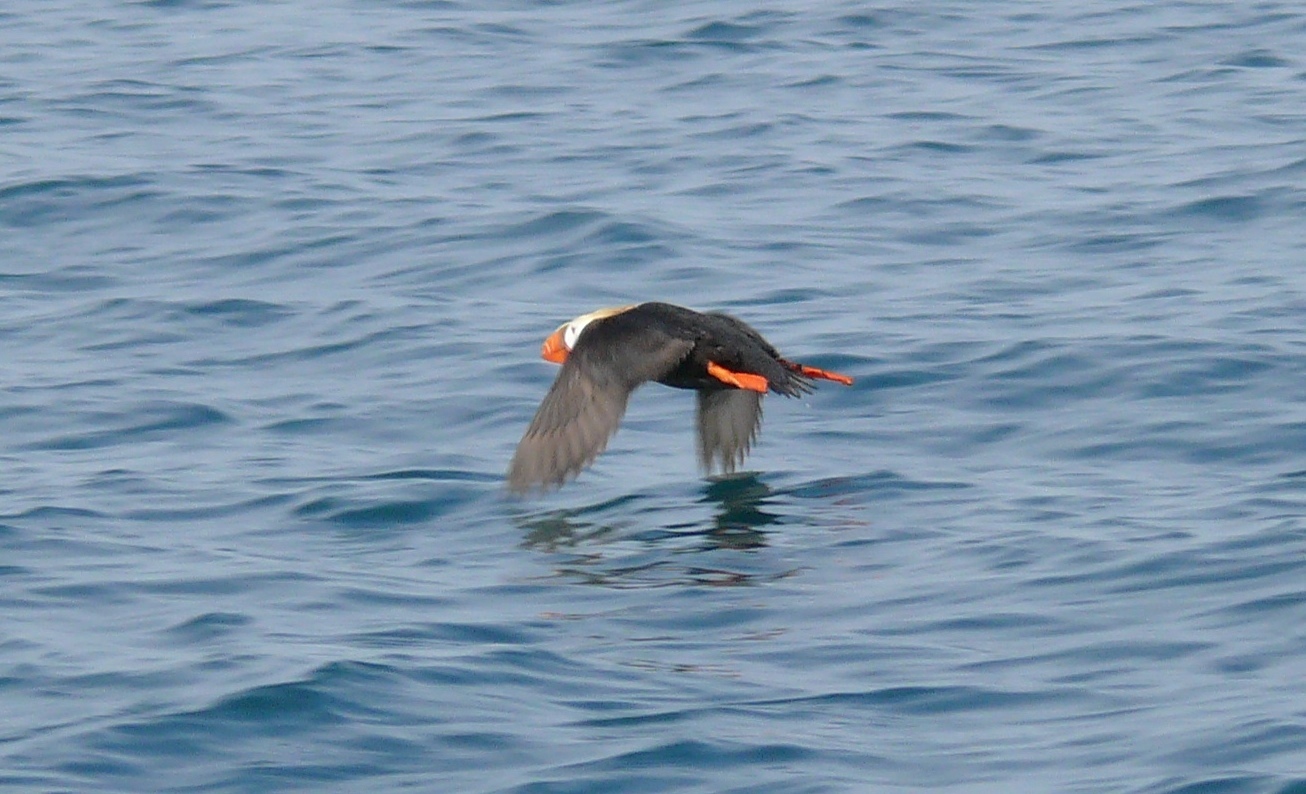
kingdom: Animalia
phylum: Chordata
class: Aves
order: Charadriiformes
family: Alcidae
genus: Fratercula
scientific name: Fratercula cirrhata
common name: Tufted puffin
